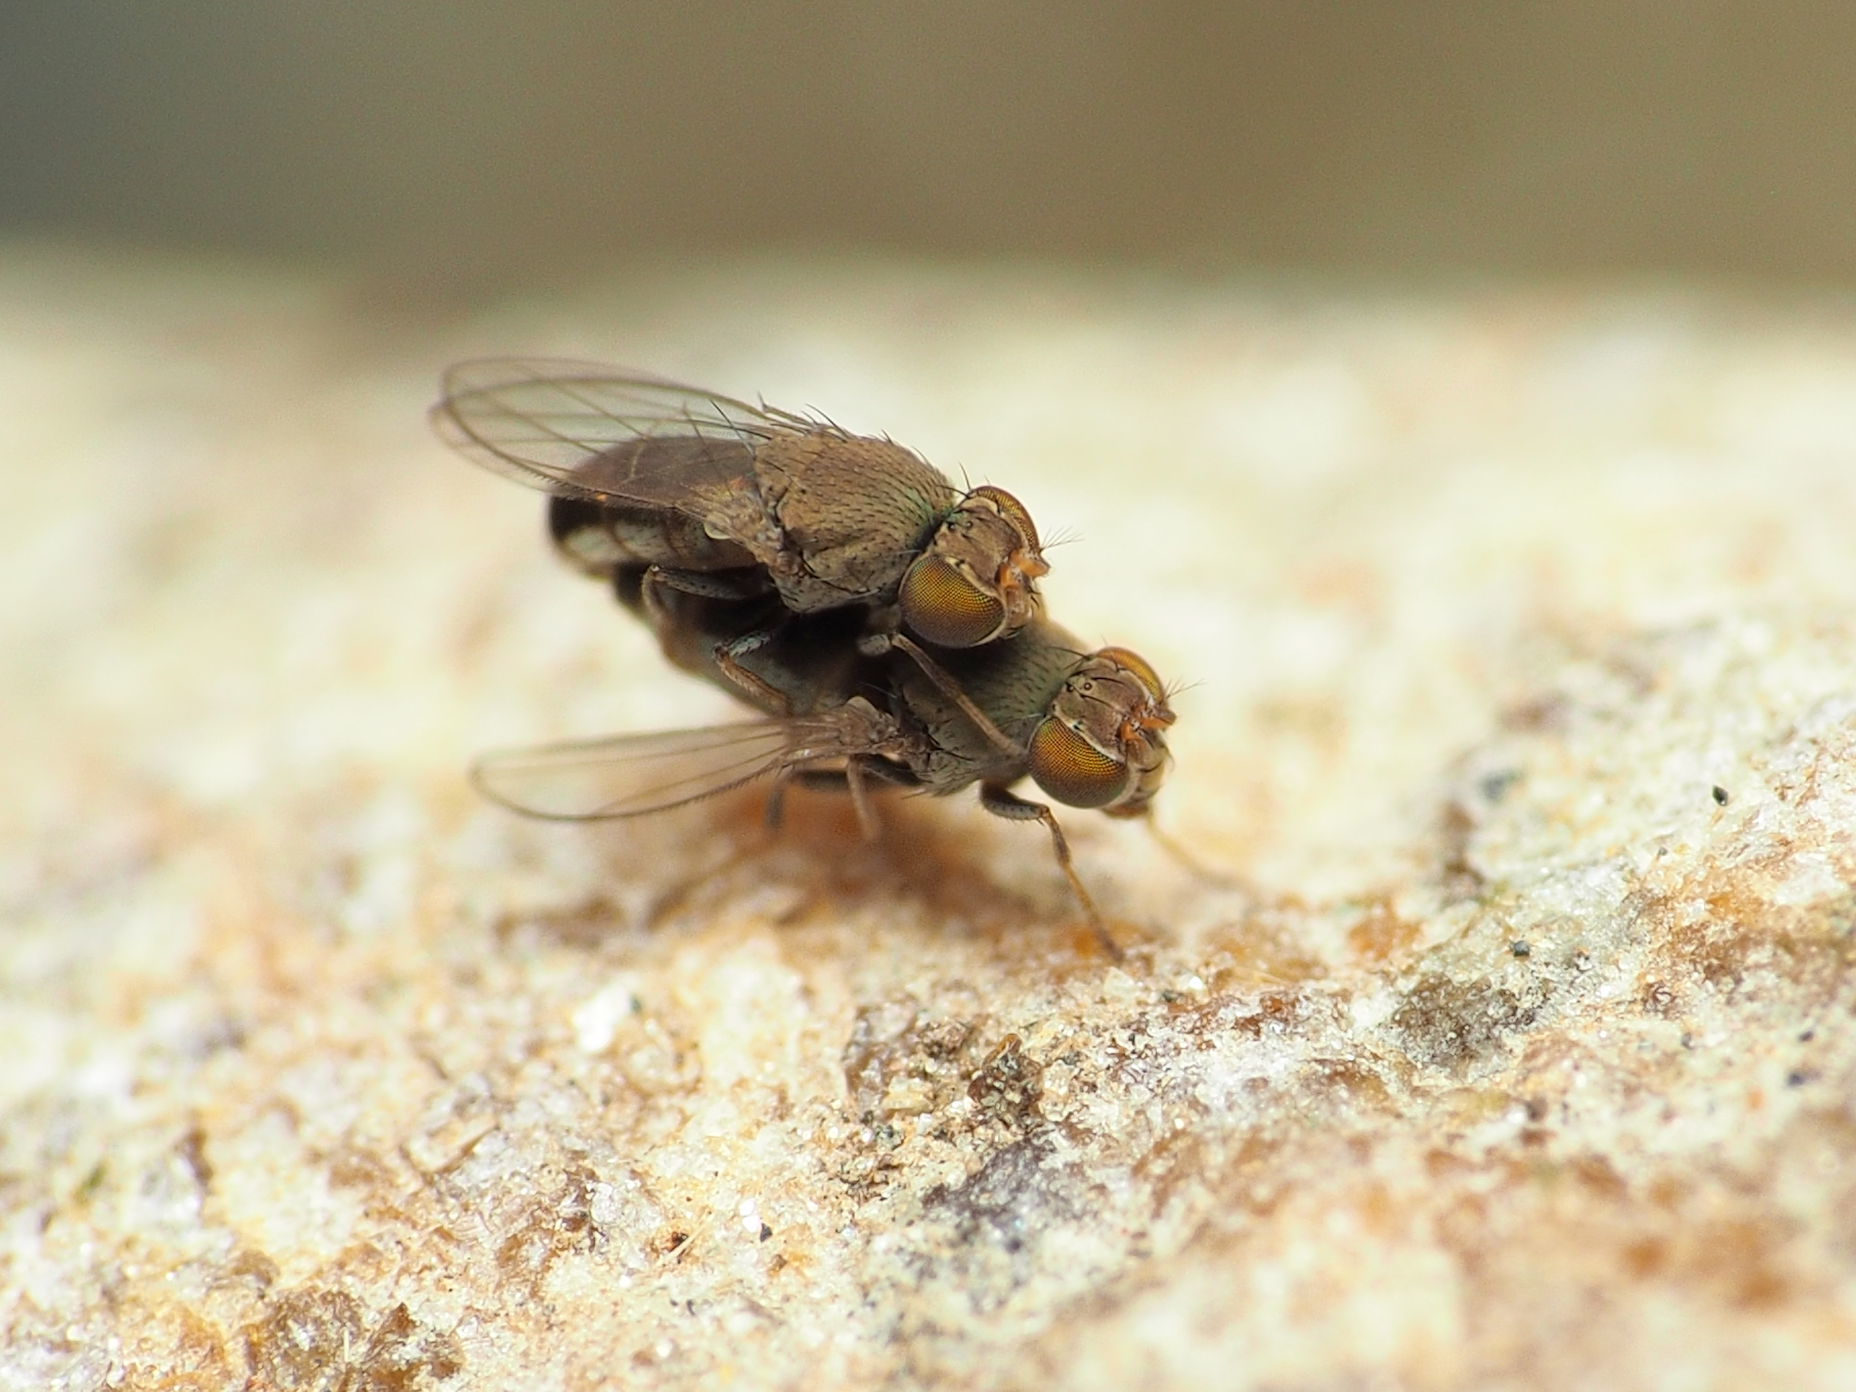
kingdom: Animalia
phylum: Arthropoda
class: Insecta
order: Diptera
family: Ephydridae
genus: Aquachasma
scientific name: Aquachasma leucoproctum
